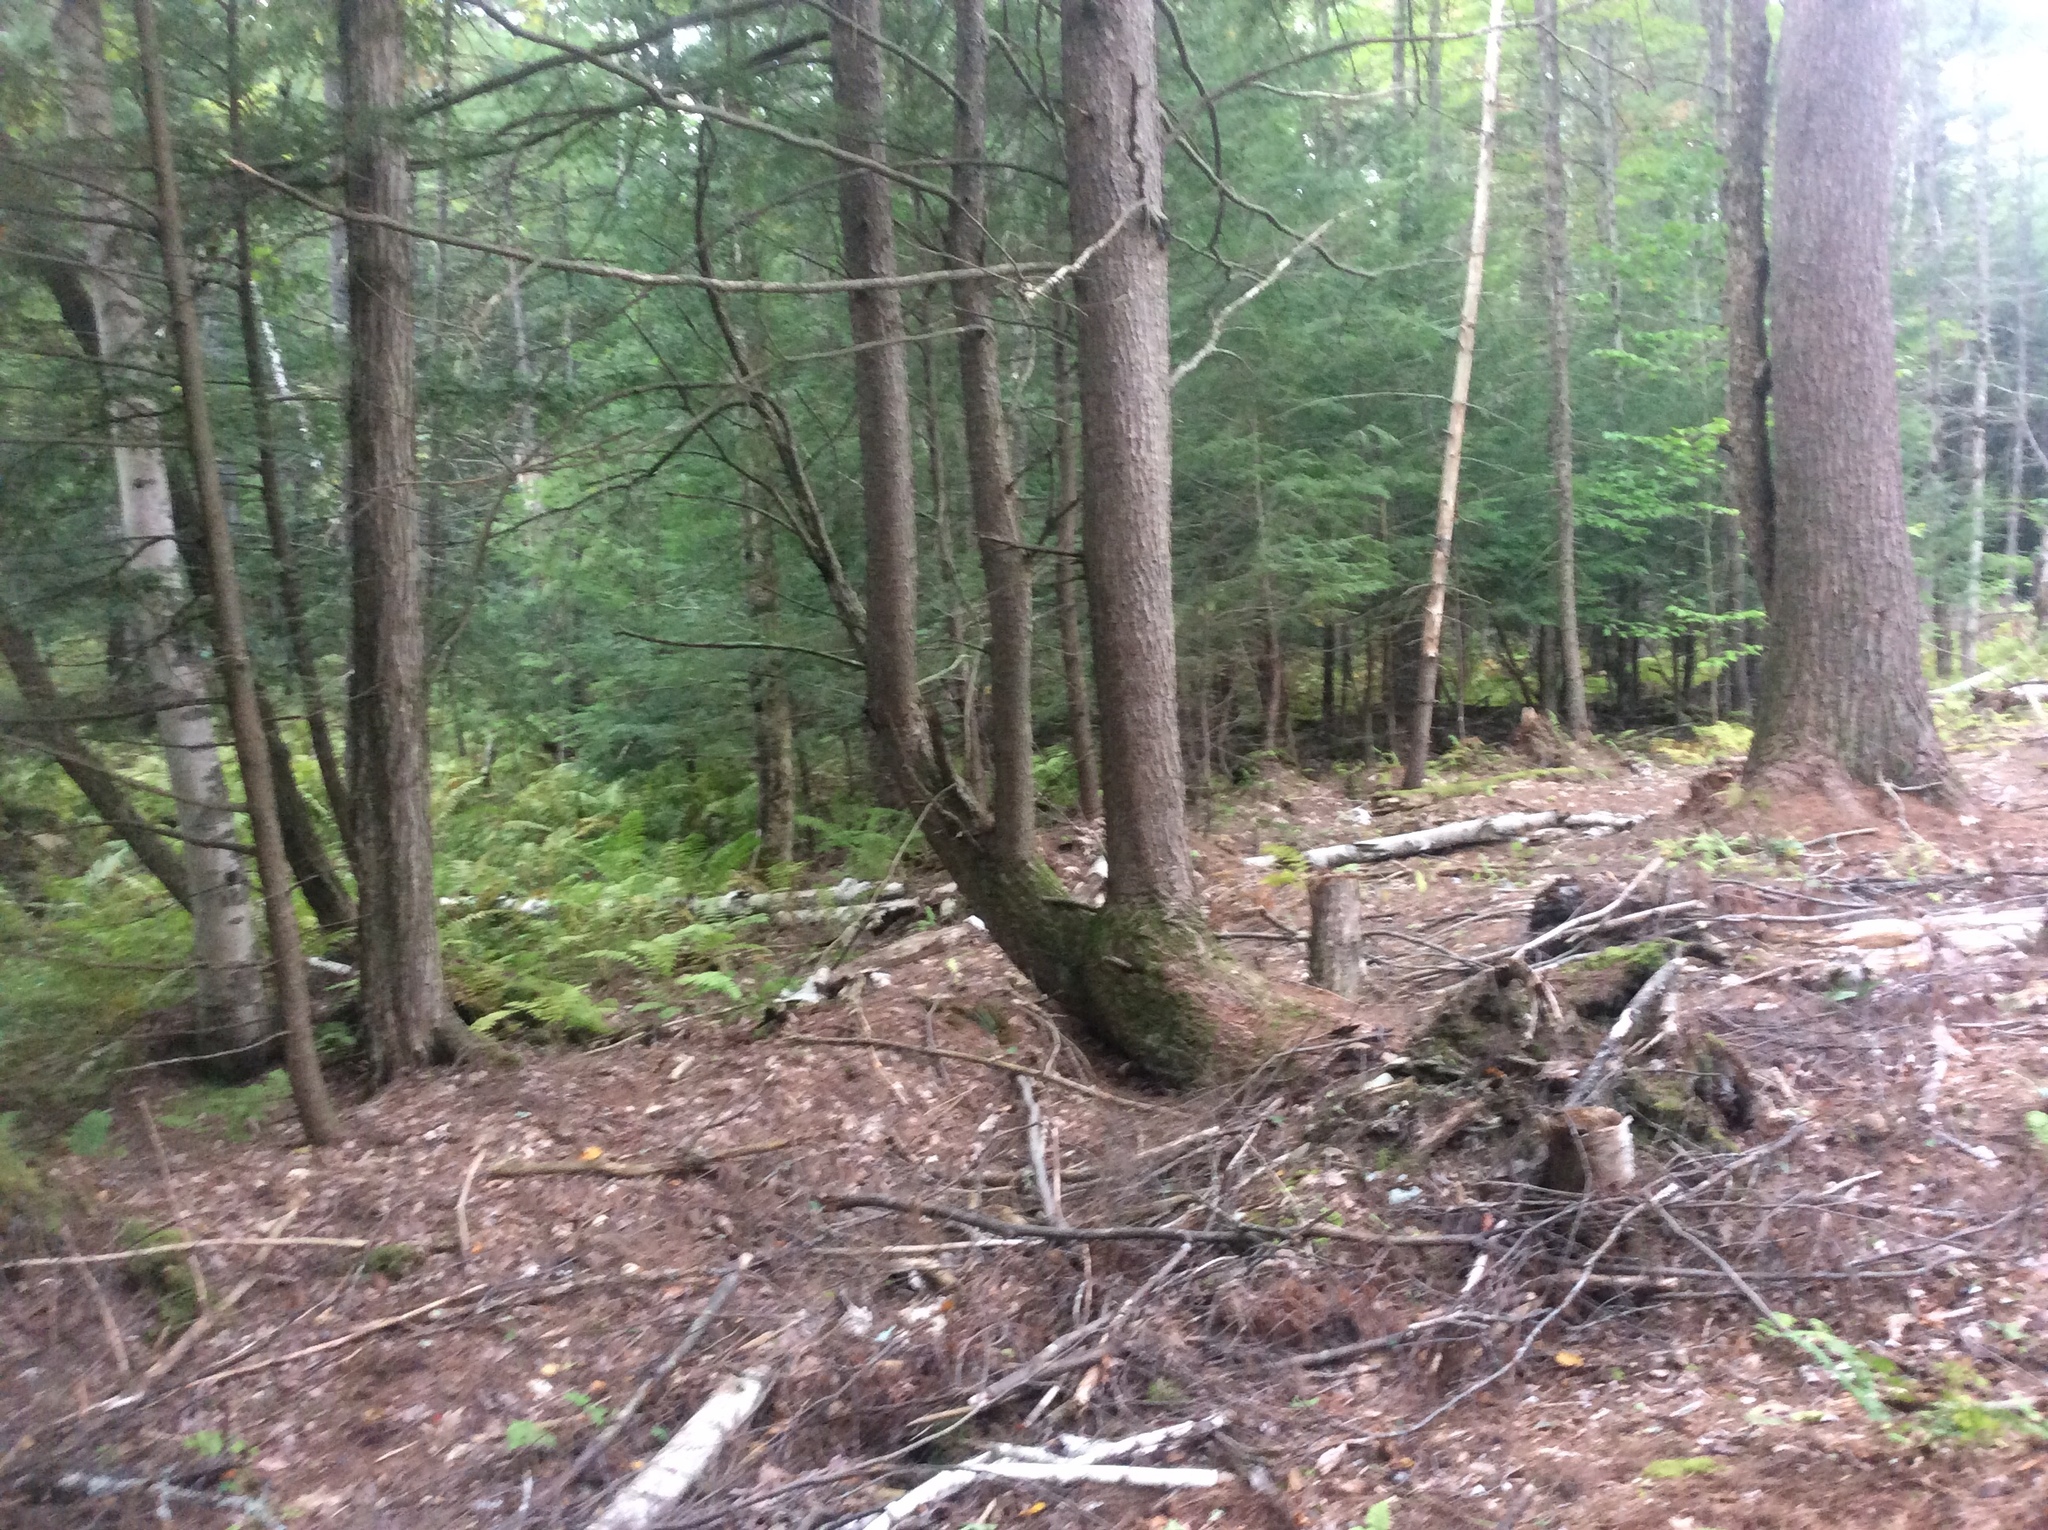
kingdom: Plantae
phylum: Tracheophyta
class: Pinopsida
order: Pinales
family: Pinaceae
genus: Tsuga
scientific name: Tsuga canadensis
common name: Eastern hemlock
